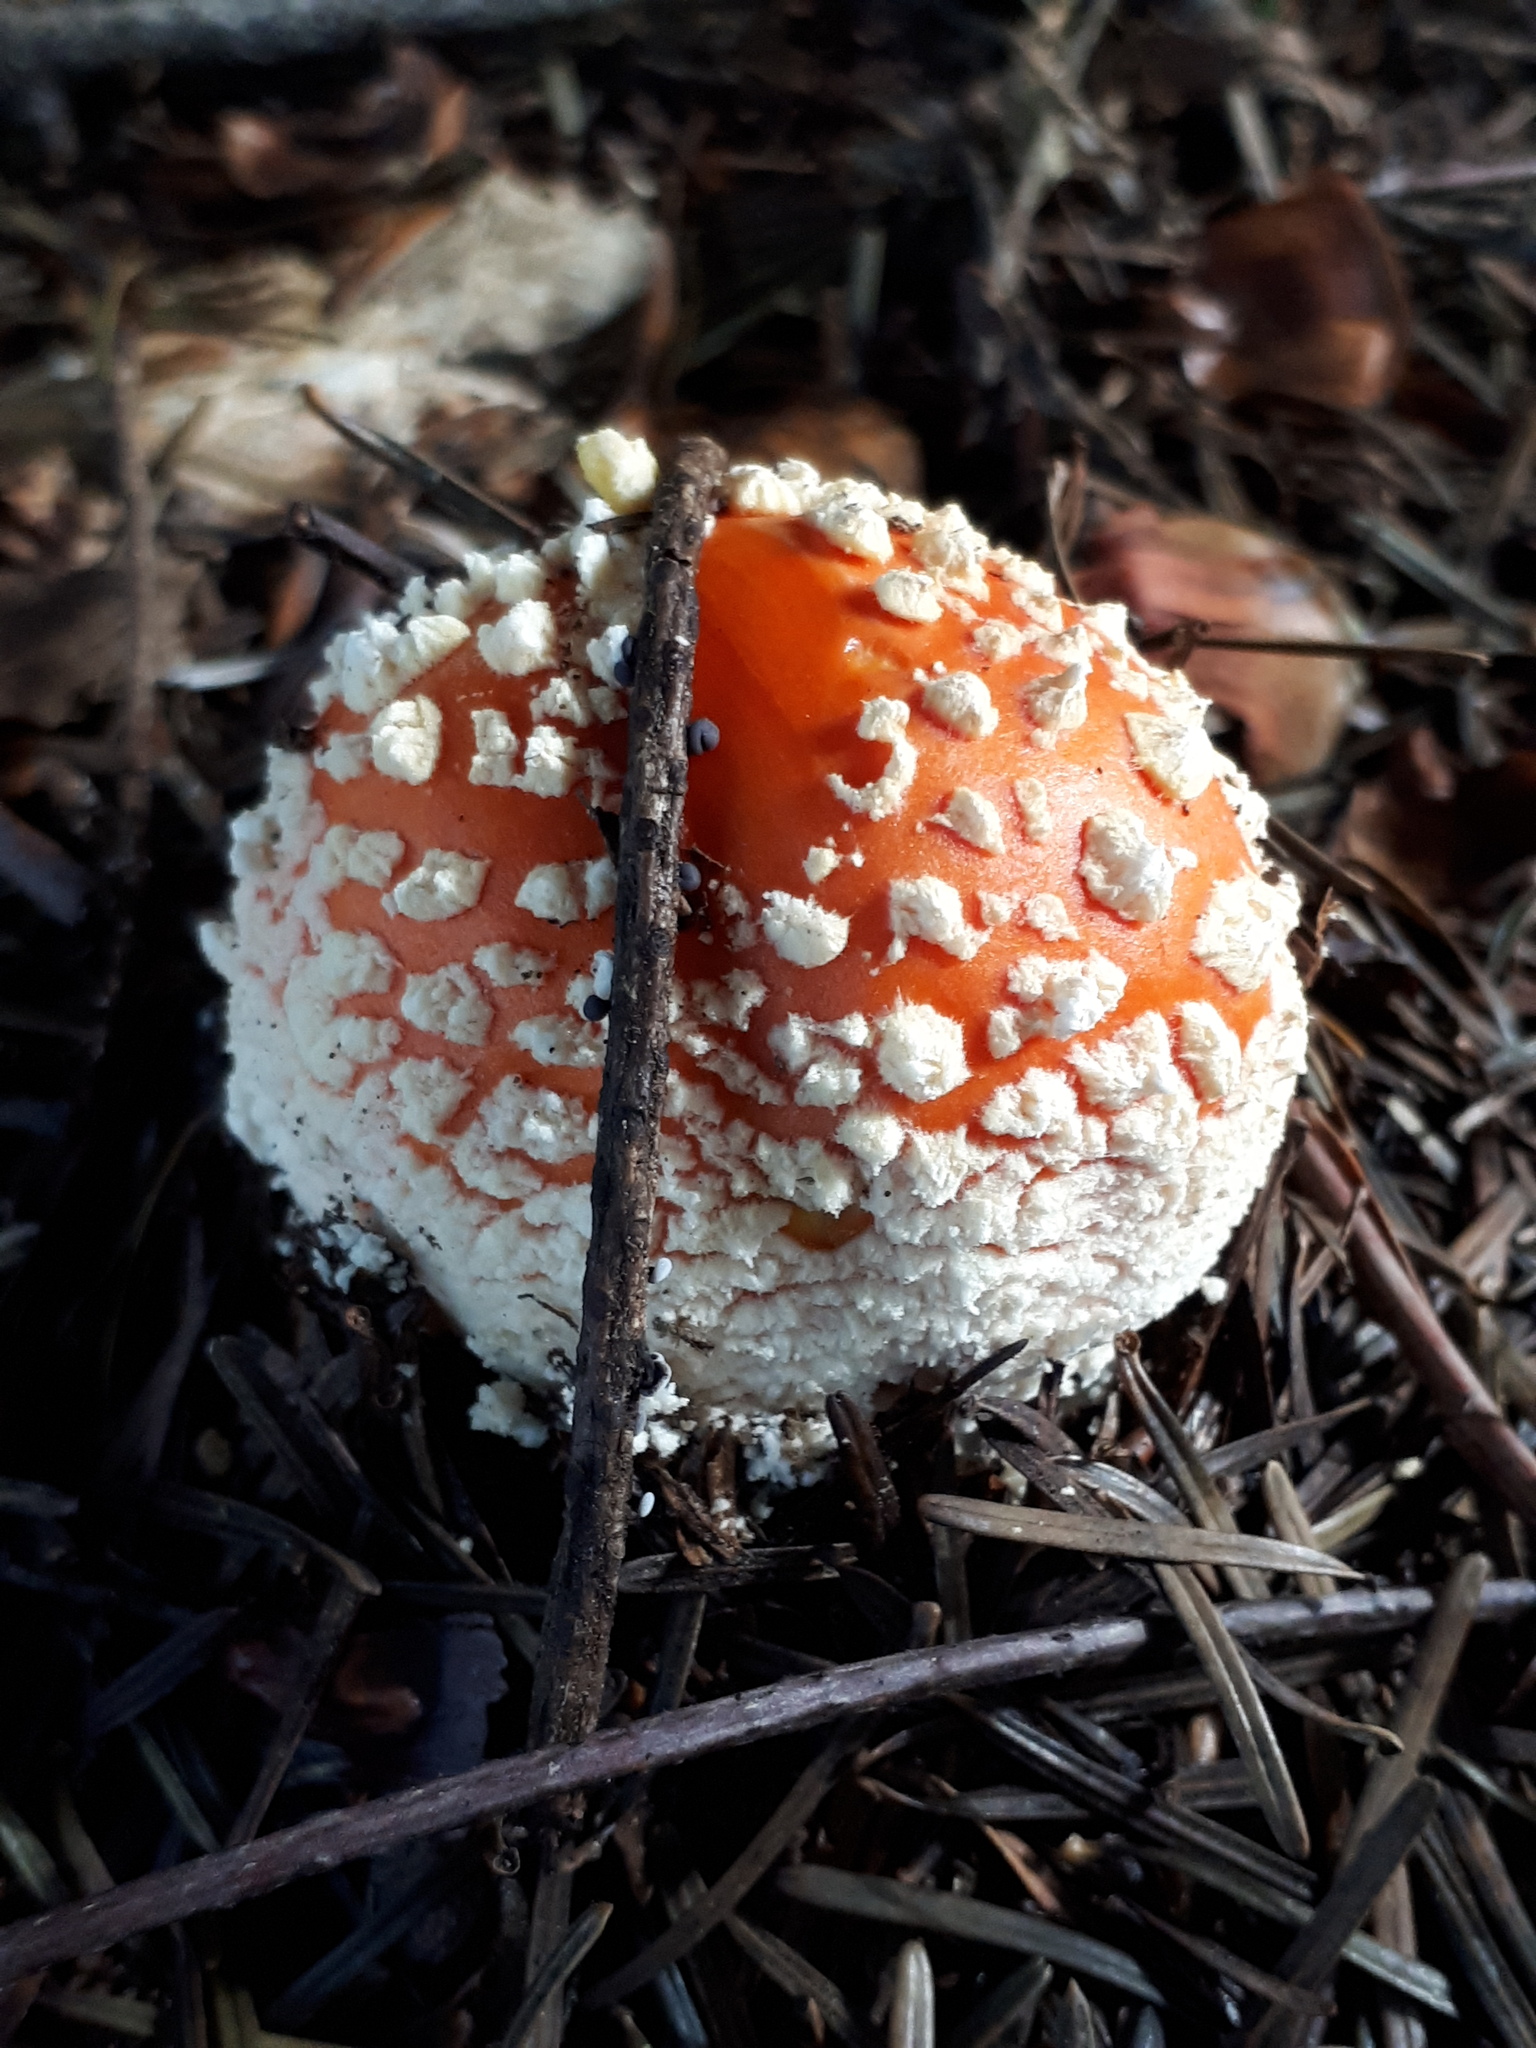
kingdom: Fungi
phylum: Basidiomycota
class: Agaricomycetes
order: Agaricales
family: Amanitaceae
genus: Amanita
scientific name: Amanita muscaria
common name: Fly agaric
